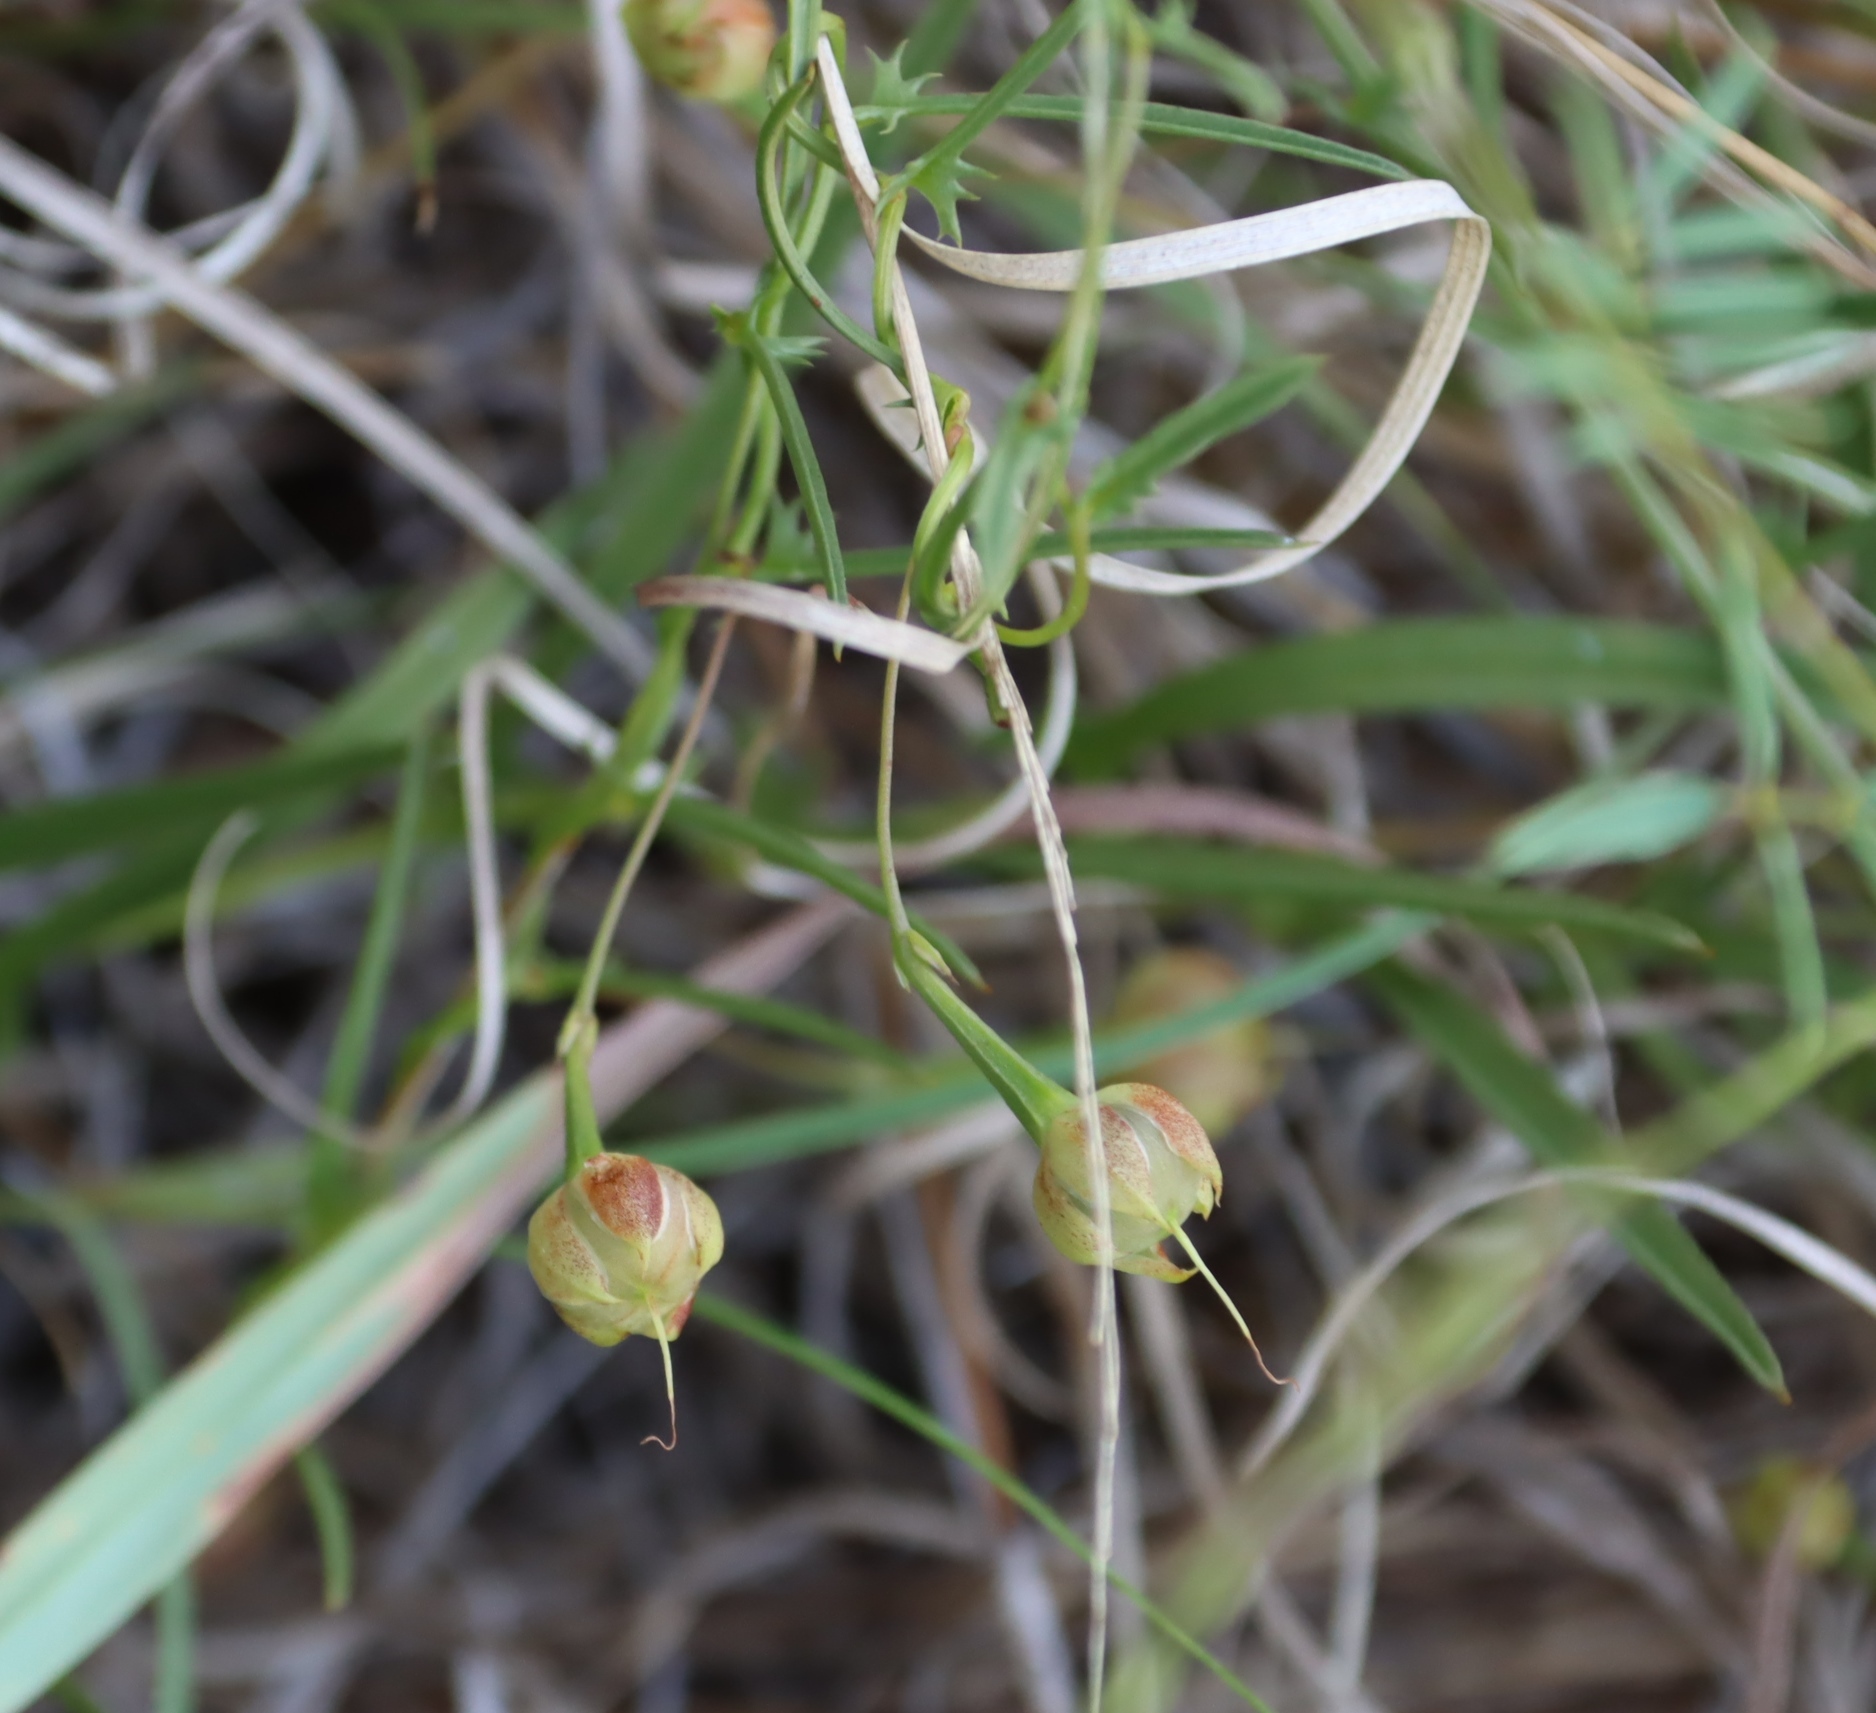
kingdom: Plantae
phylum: Tracheophyta
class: Magnoliopsida
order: Solanales
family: Convolvulaceae
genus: Xenostegia
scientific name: Xenostegia tridentata
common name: African morningvine
